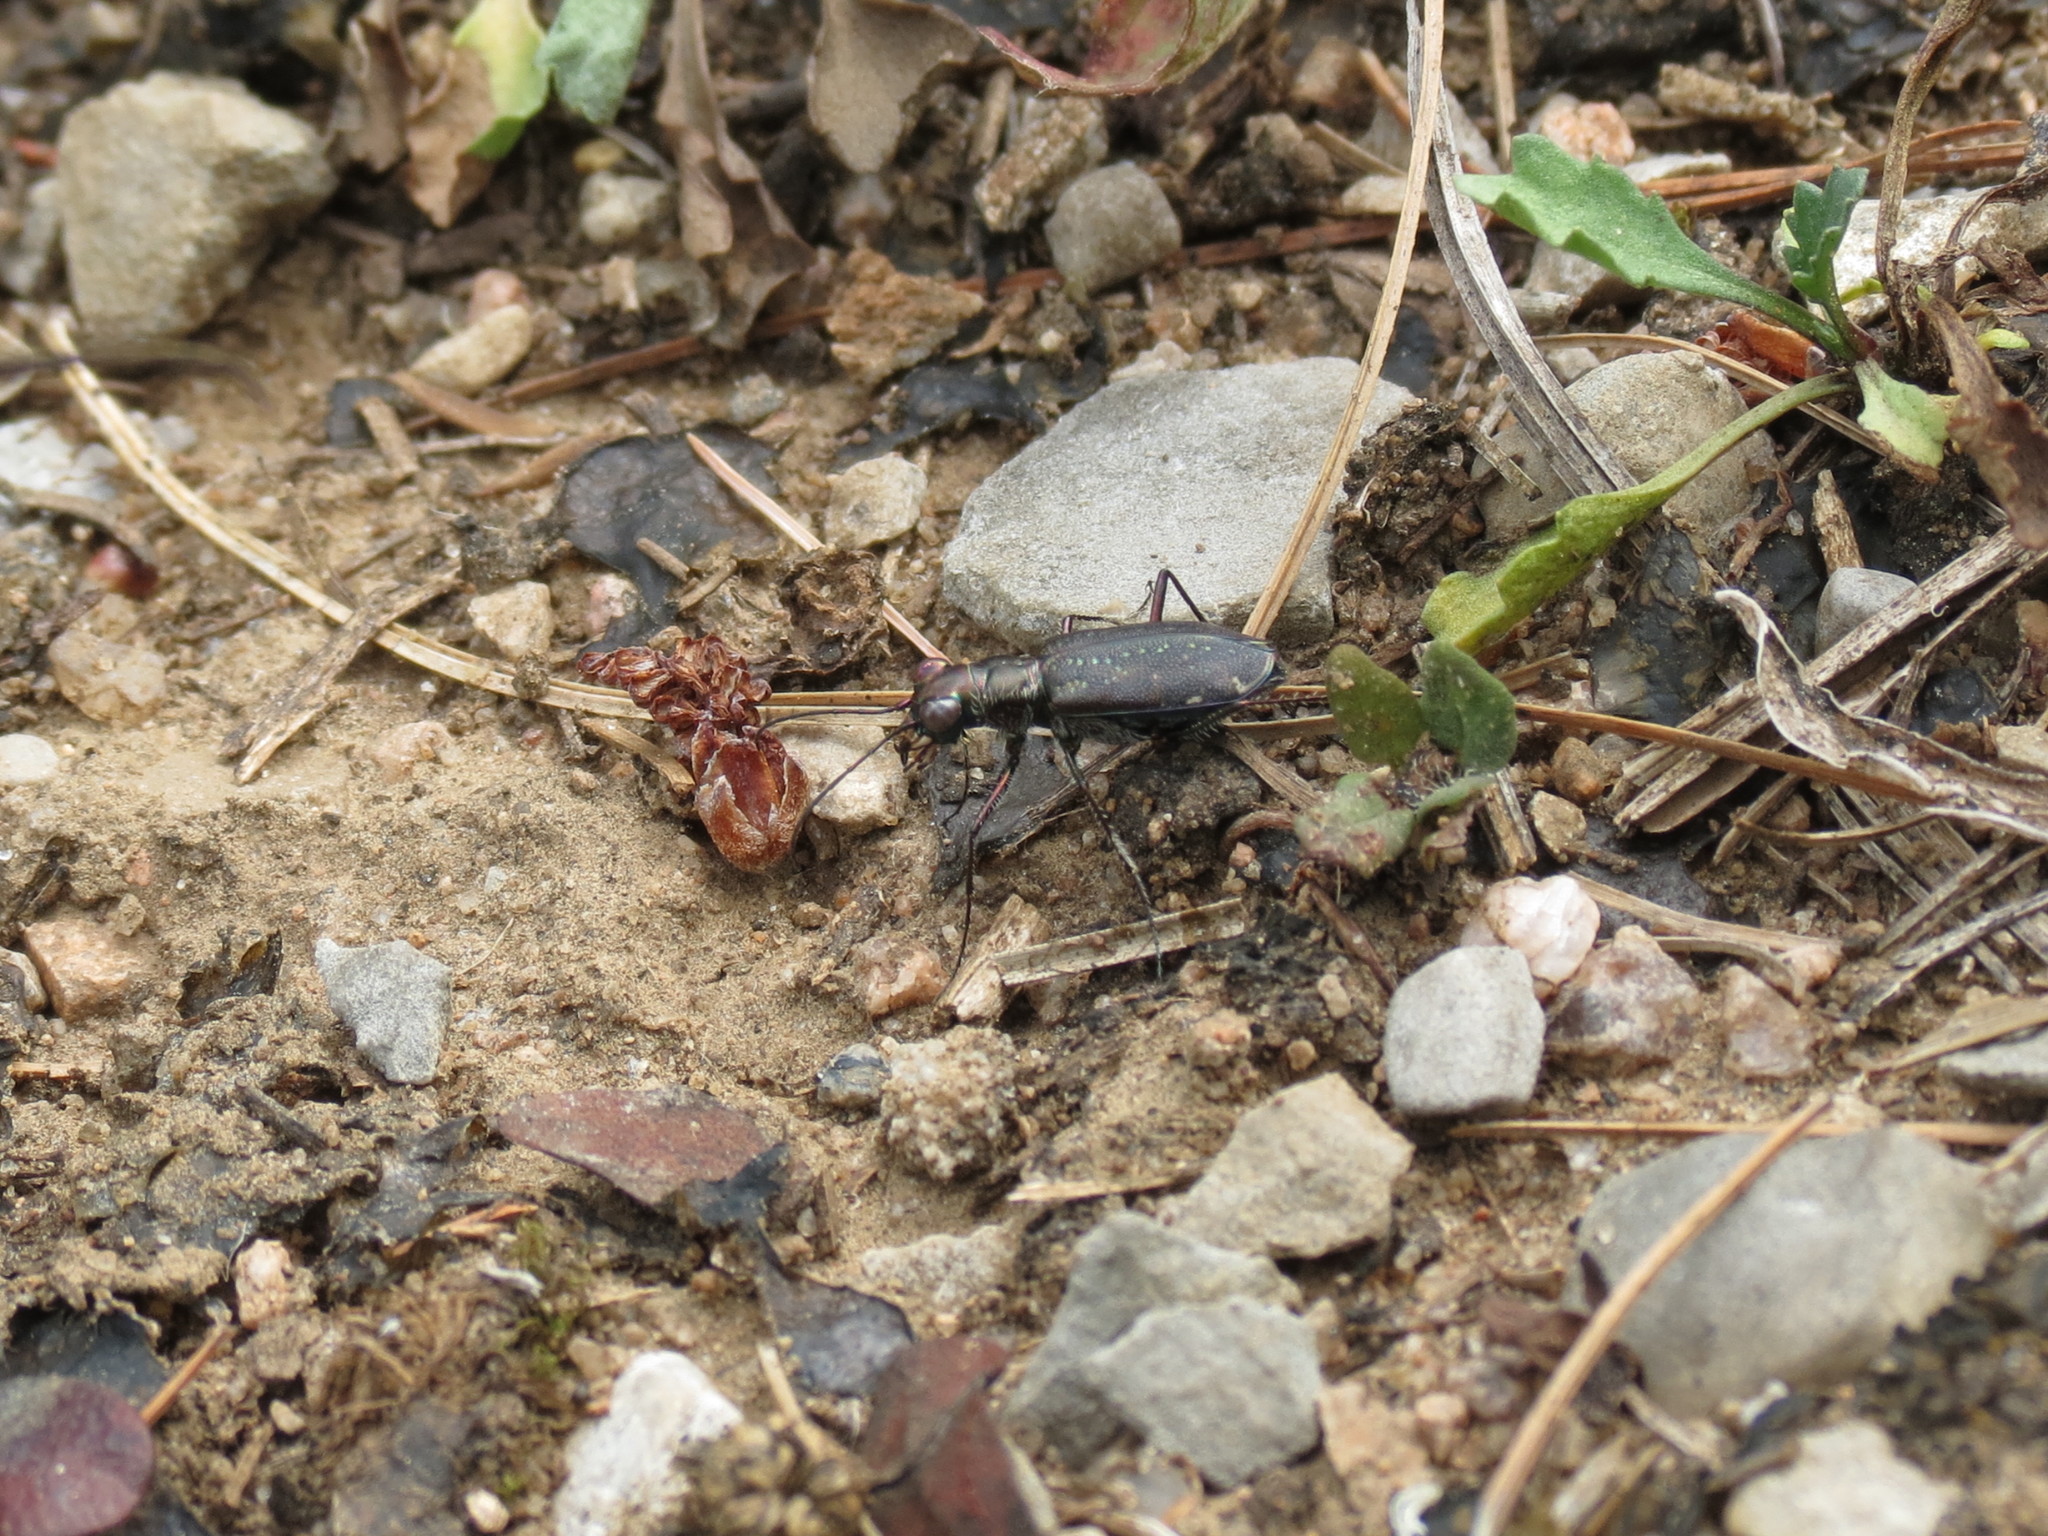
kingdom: Animalia
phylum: Arthropoda
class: Insecta
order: Coleoptera
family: Carabidae
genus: Cicindela
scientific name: Cicindela punctulata
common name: Punctured tiger beetle
